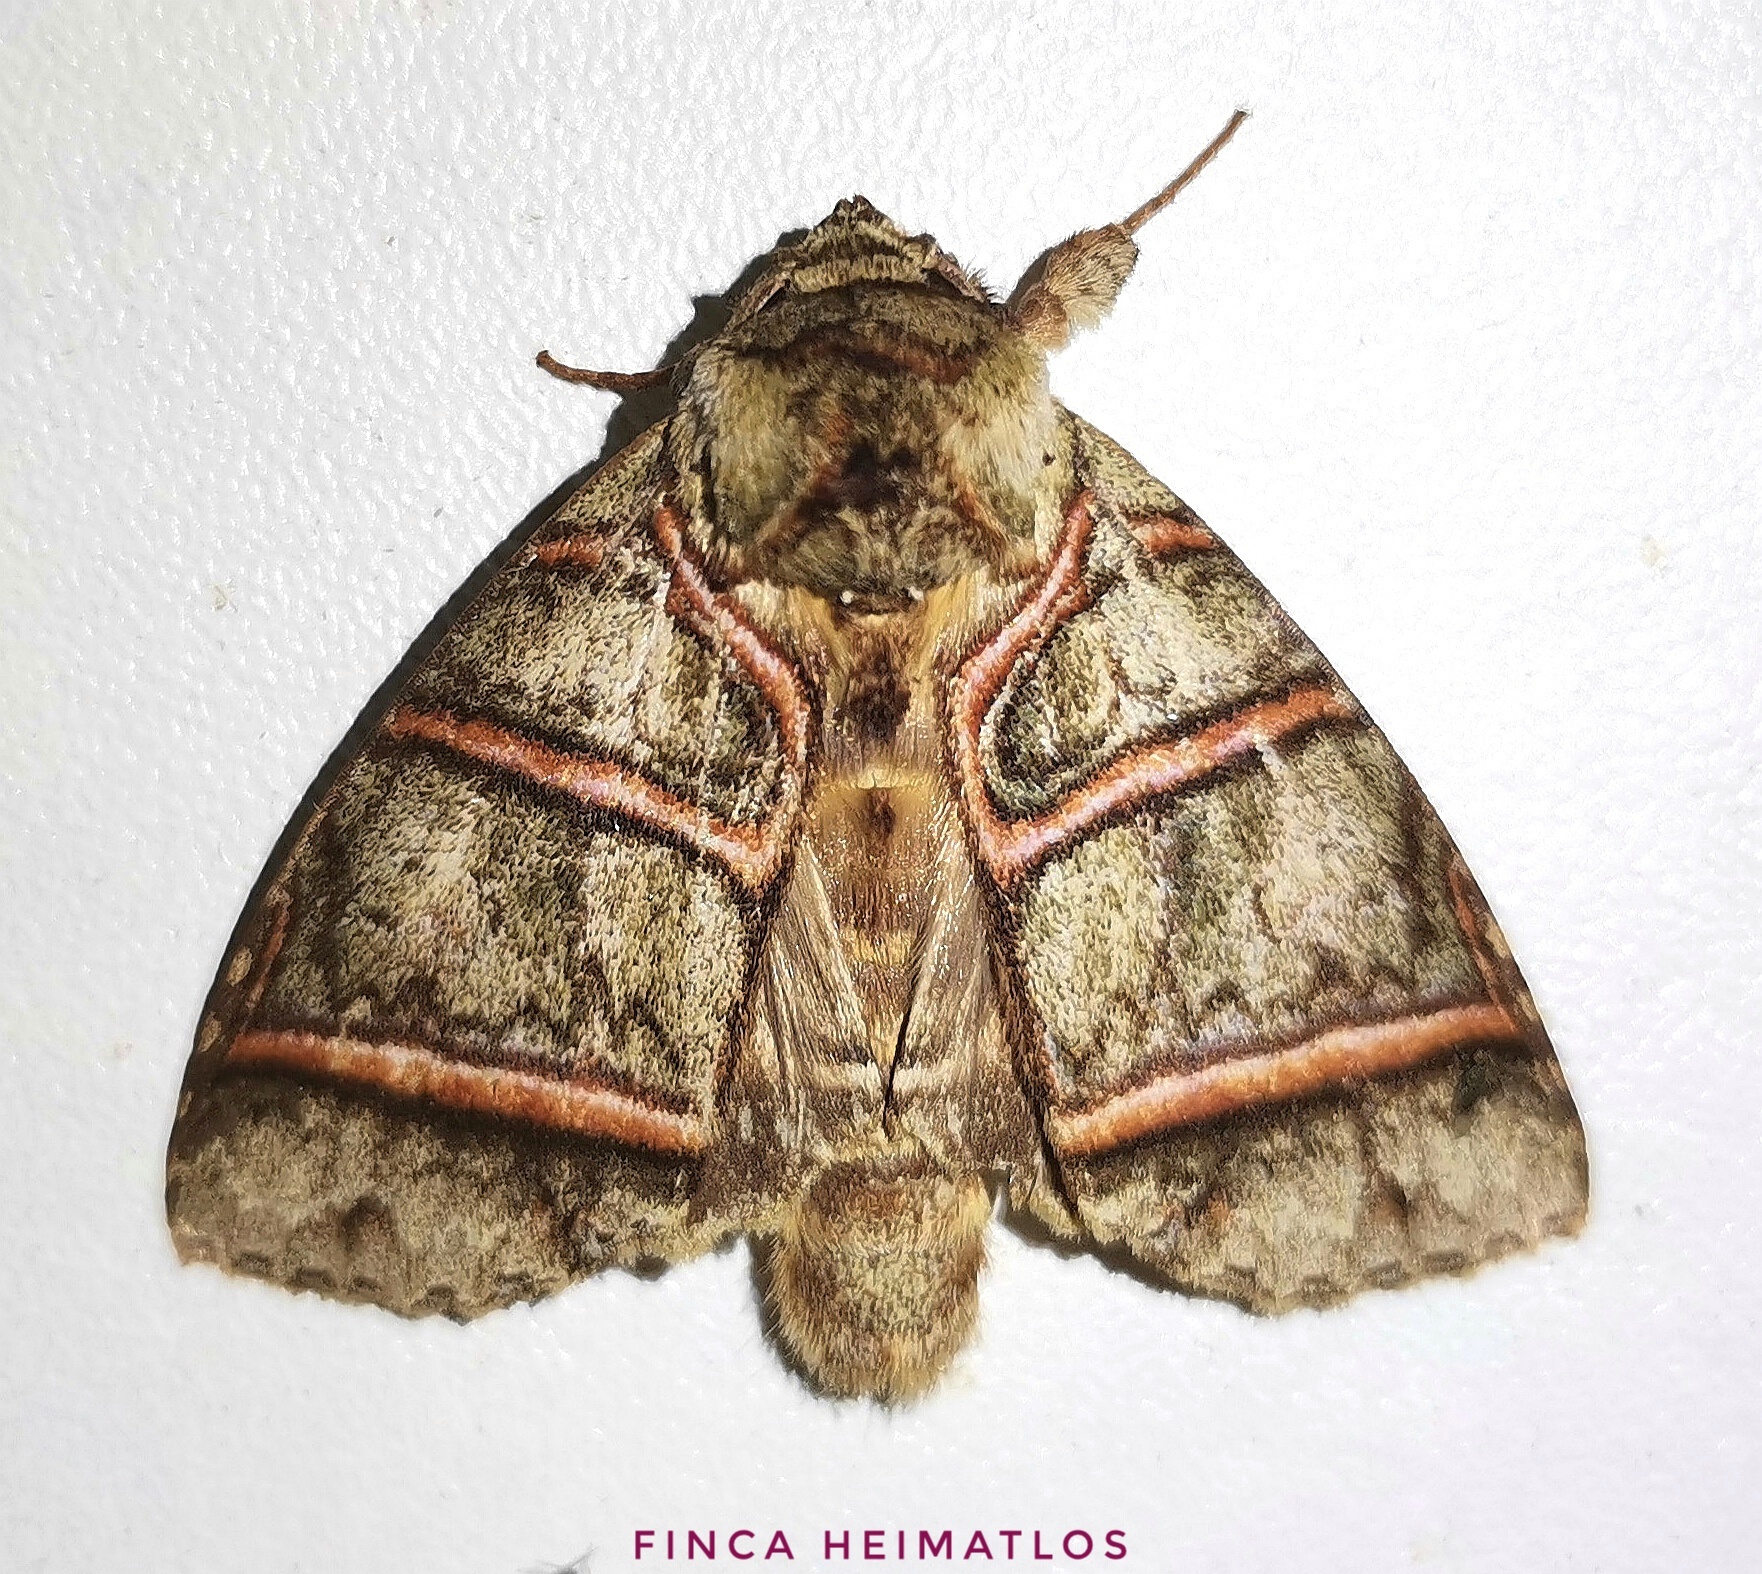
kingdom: Animalia
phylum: Arthropoda
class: Insecta
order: Lepidoptera
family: Notodontidae
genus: Eragisa
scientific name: Eragisa antarorum
